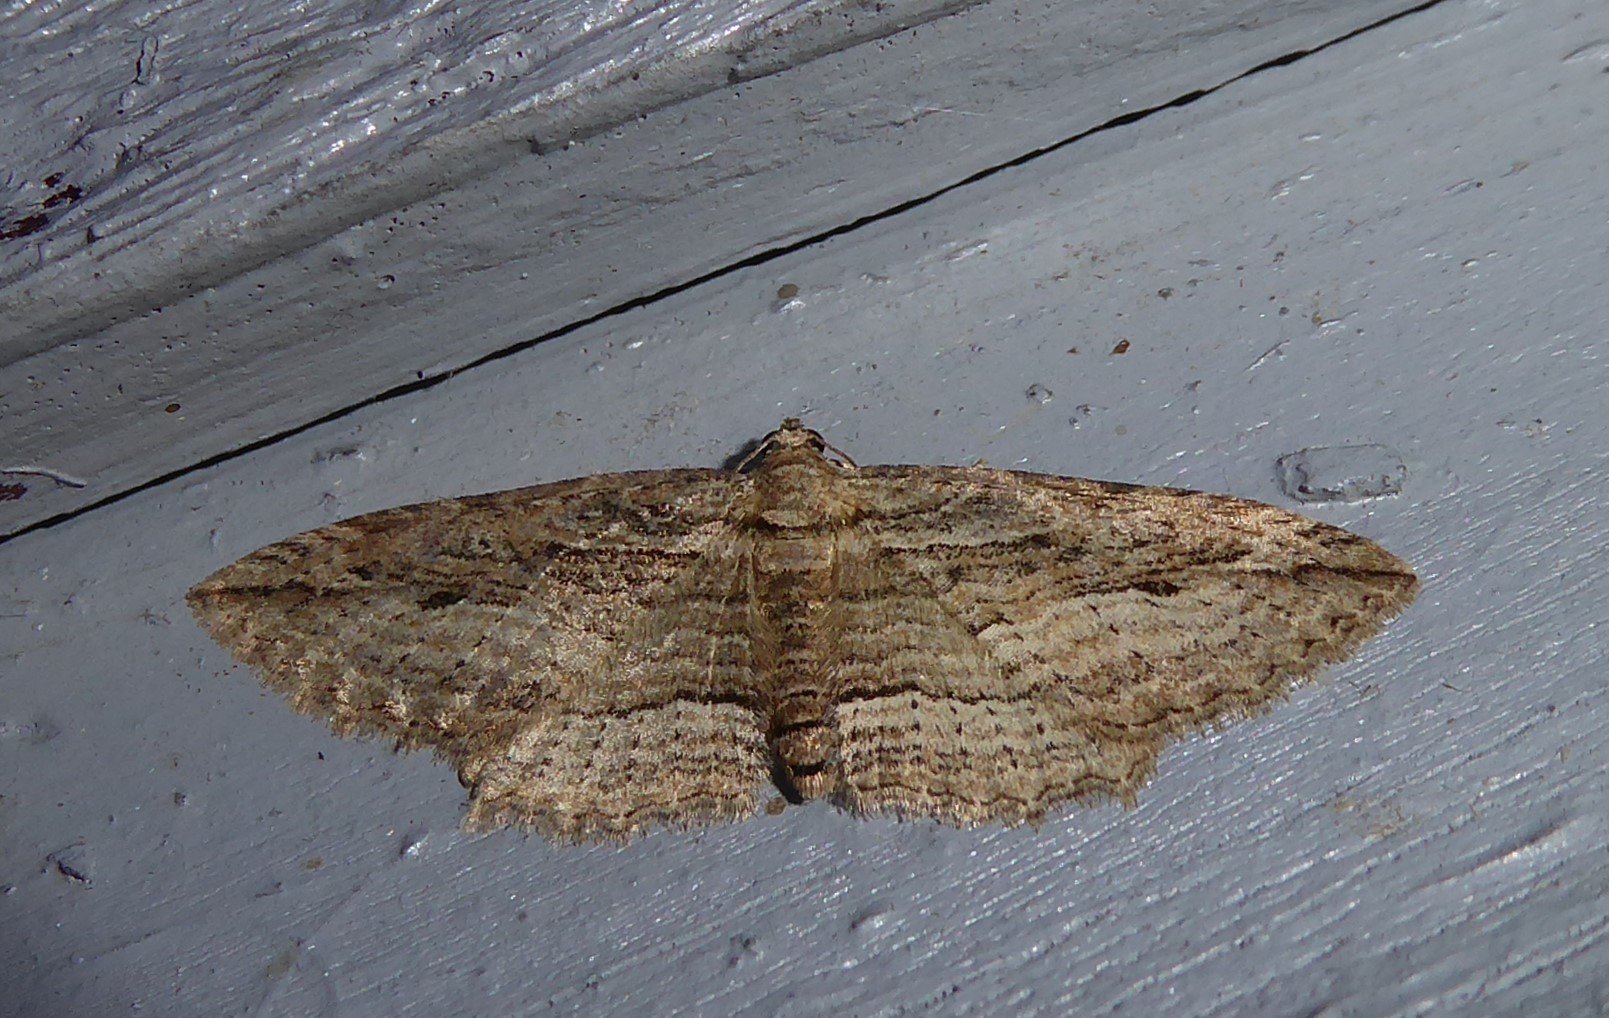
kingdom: Animalia
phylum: Arthropoda
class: Insecta
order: Lepidoptera
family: Geometridae
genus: Austrocidaria
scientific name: Austrocidaria gobiata
